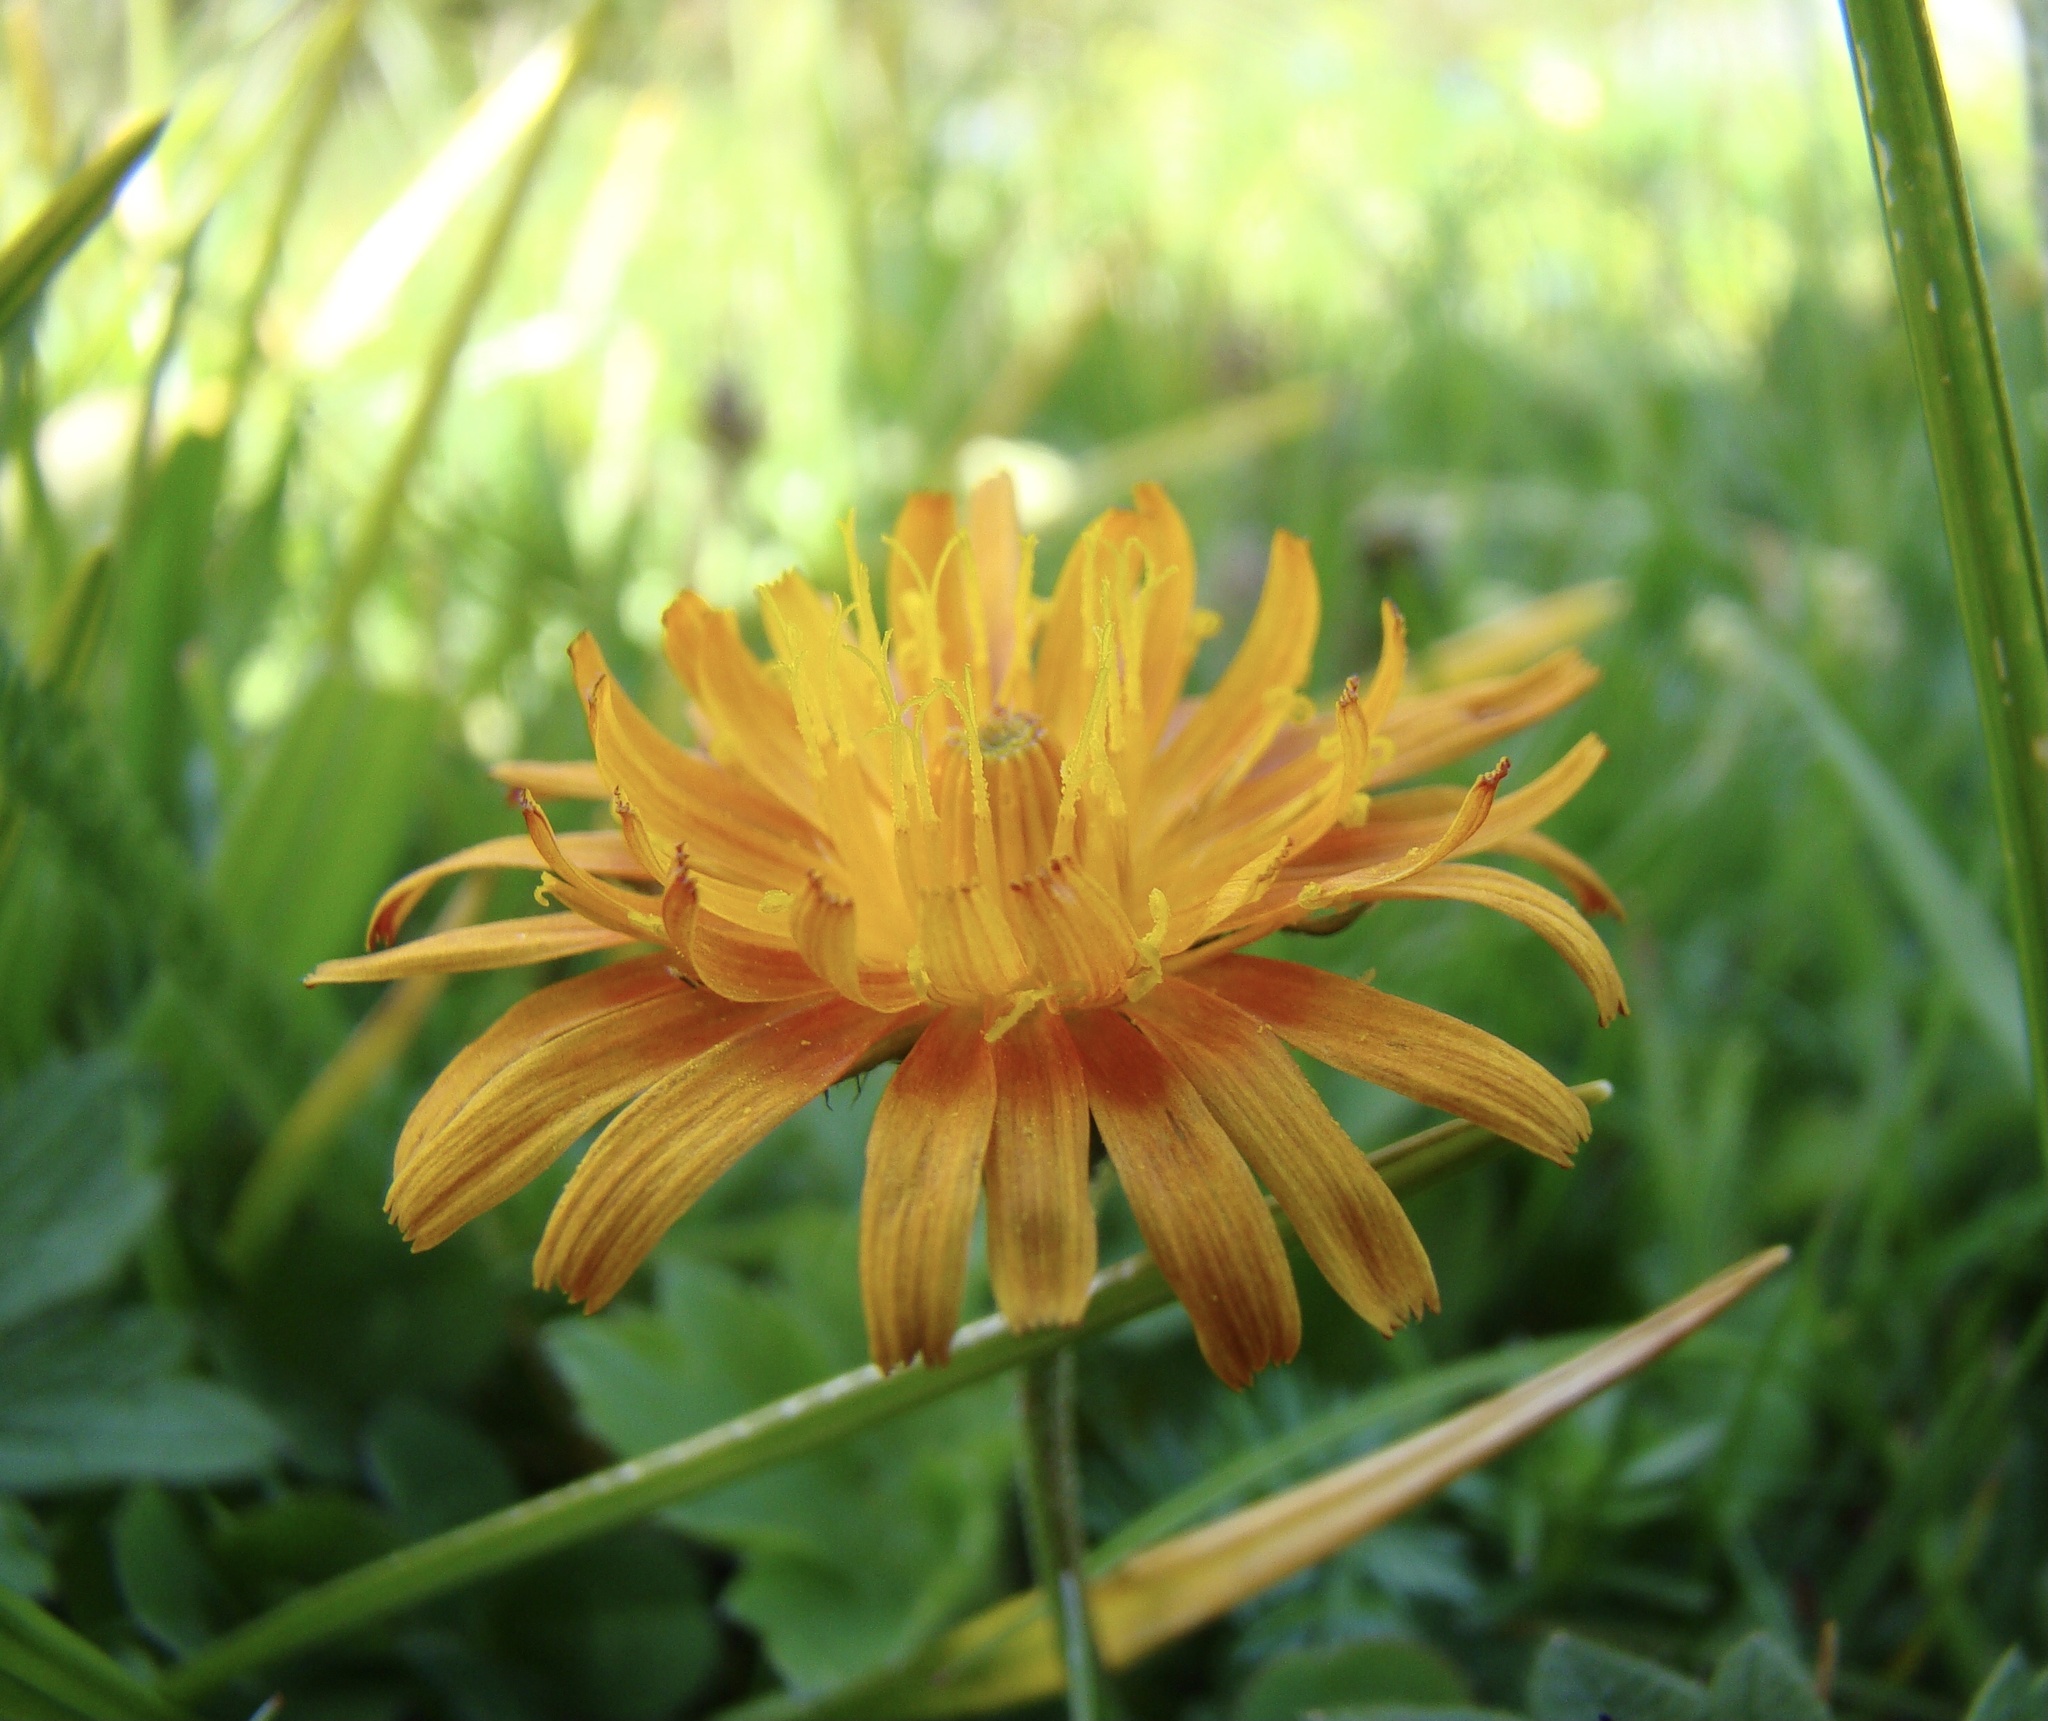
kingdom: Plantae
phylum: Tracheophyta
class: Magnoliopsida
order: Asterales
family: Asteraceae
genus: Crepis
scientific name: Crepis aurea
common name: Golden hawk's-beard
